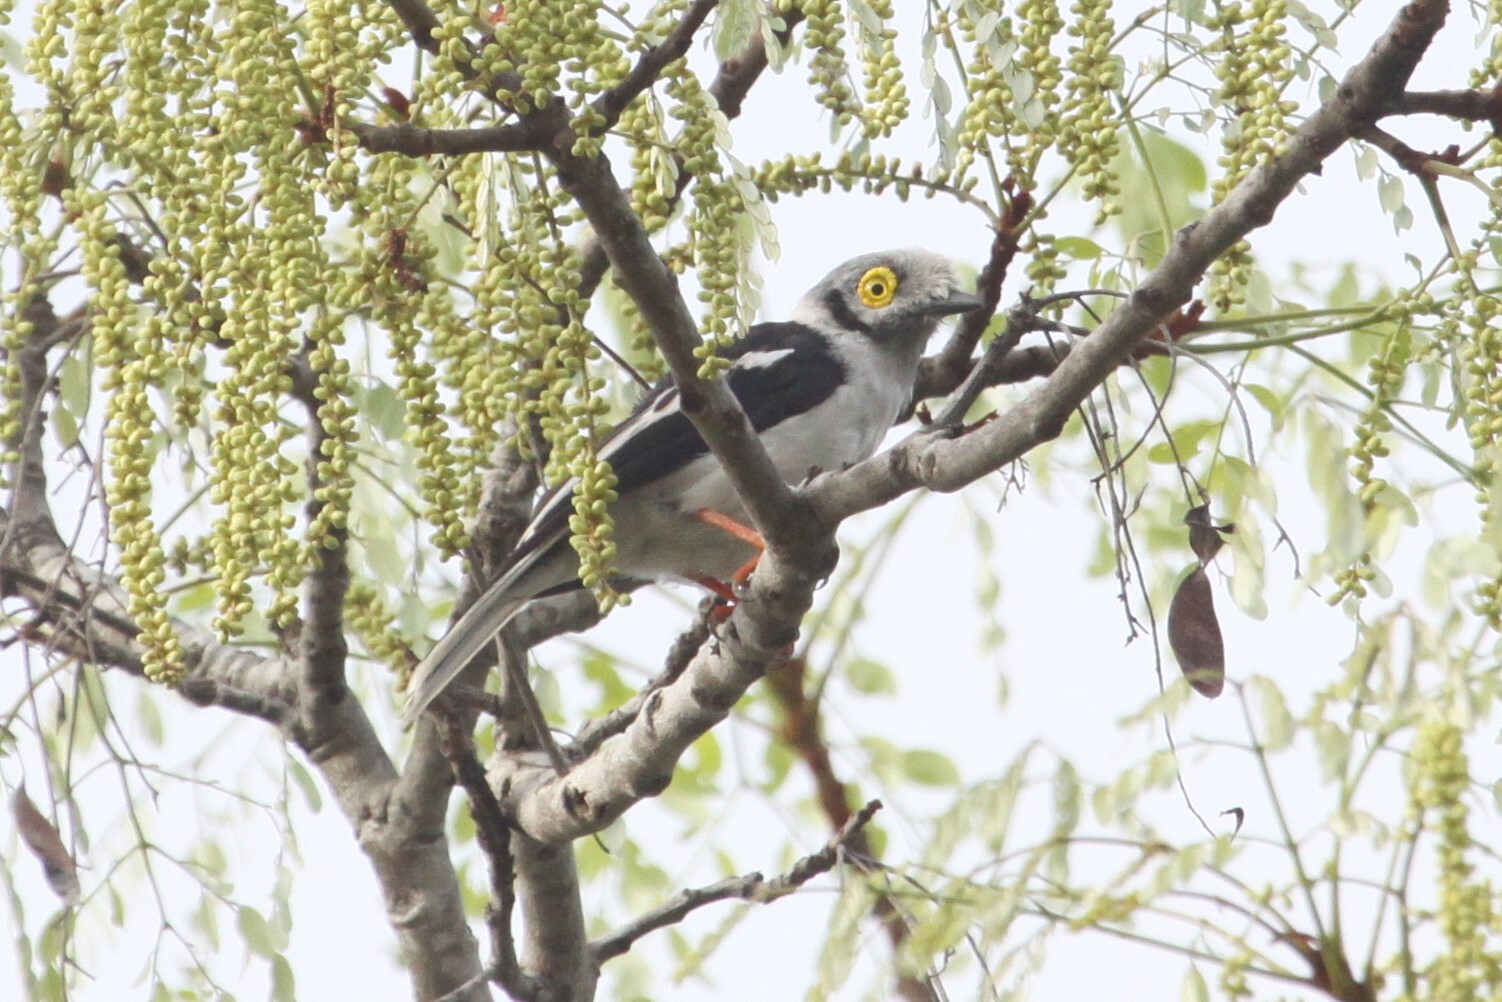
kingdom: Animalia
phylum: Chordata
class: Aves
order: Passeriformes
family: Prionopidae
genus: Prionops
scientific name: Prionops plumatus
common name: White-crested helmetshrike
